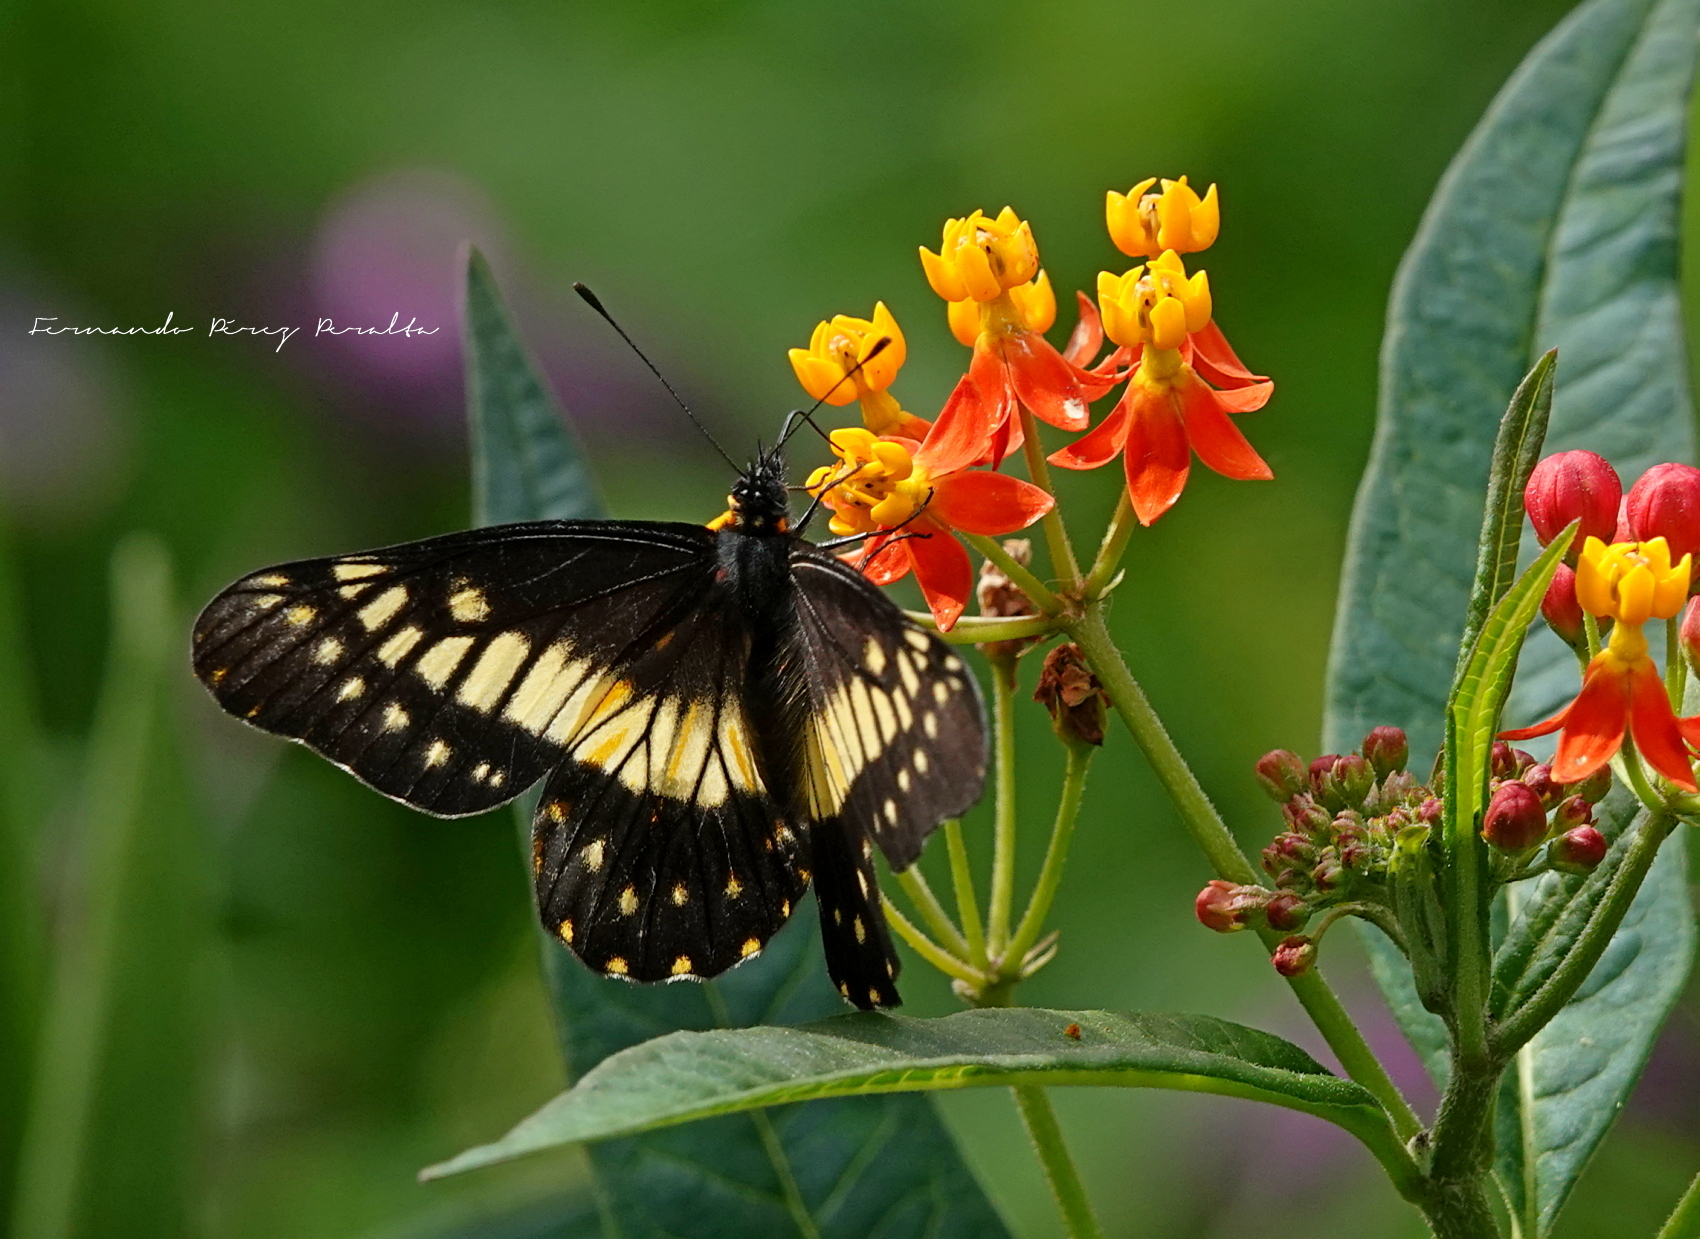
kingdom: Animalia
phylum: Arthropoda
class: Insecta
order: Lepidoptera
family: Pieridae
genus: Archonias
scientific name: Archonias nimbice
